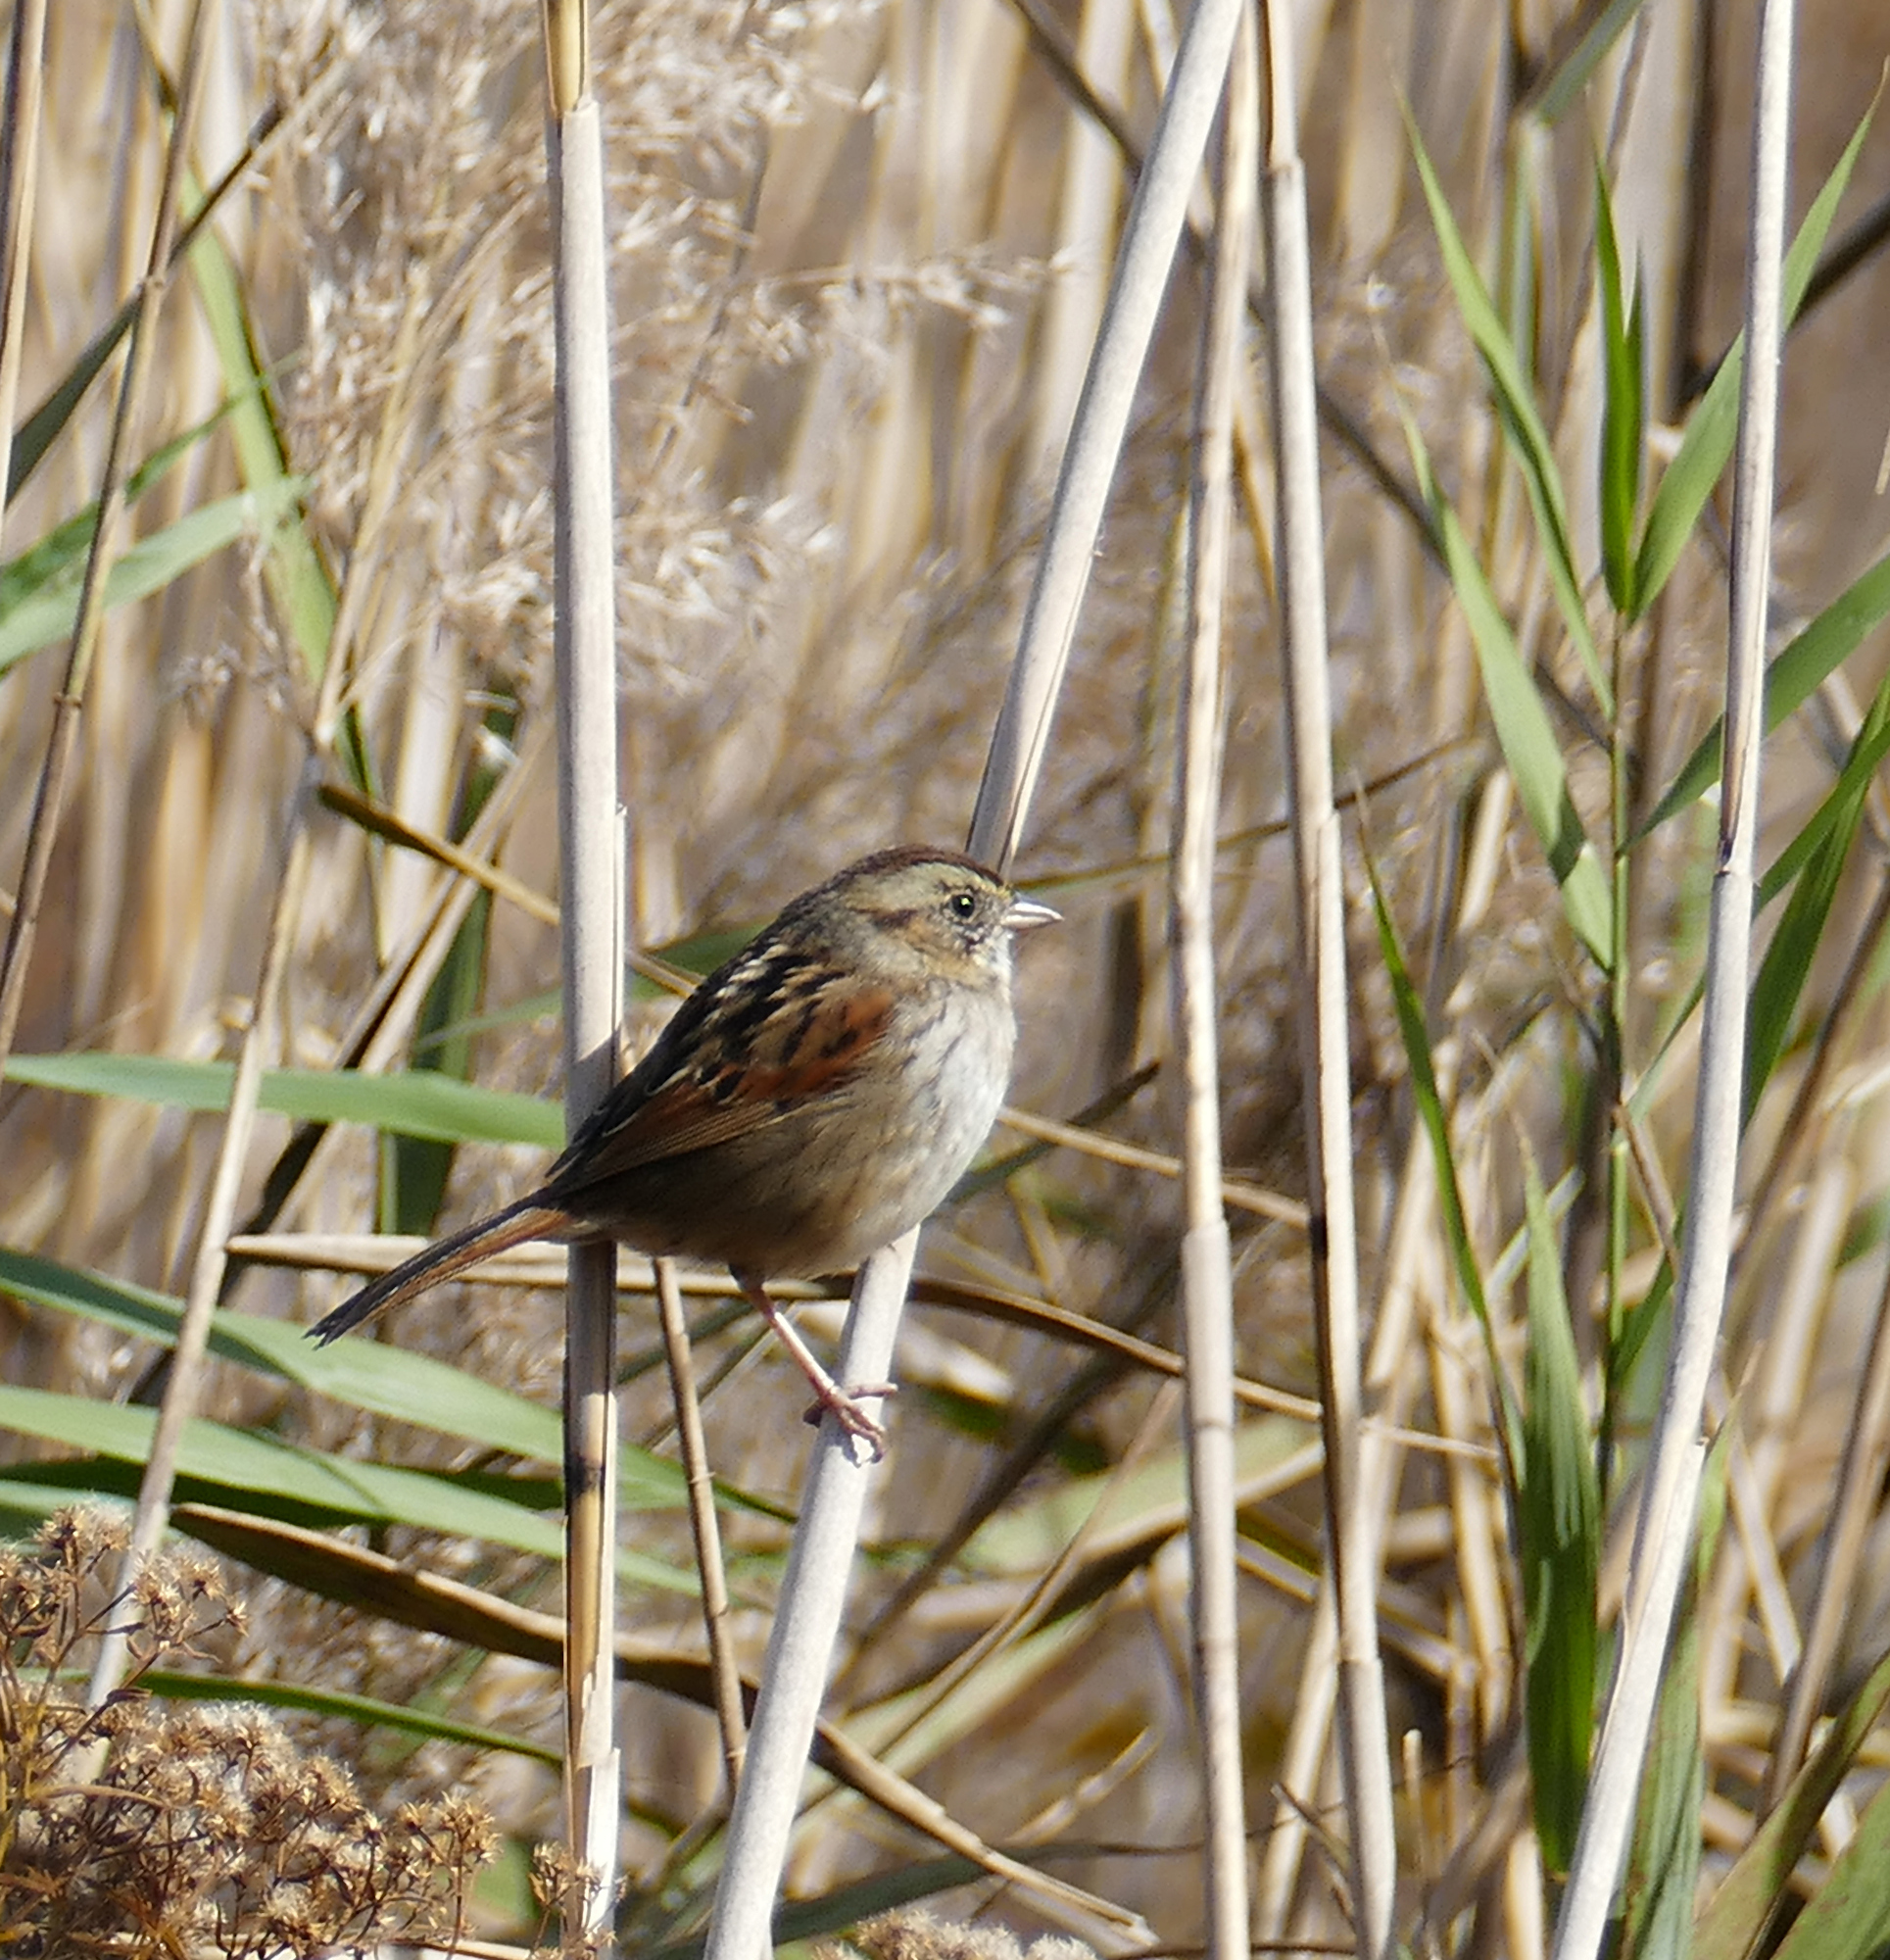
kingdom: Animalia
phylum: Chordata
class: Aves
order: Passeriformes
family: Passerellidae
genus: Melospiza
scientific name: Melospiza georgiana
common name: Swamp sparrow
